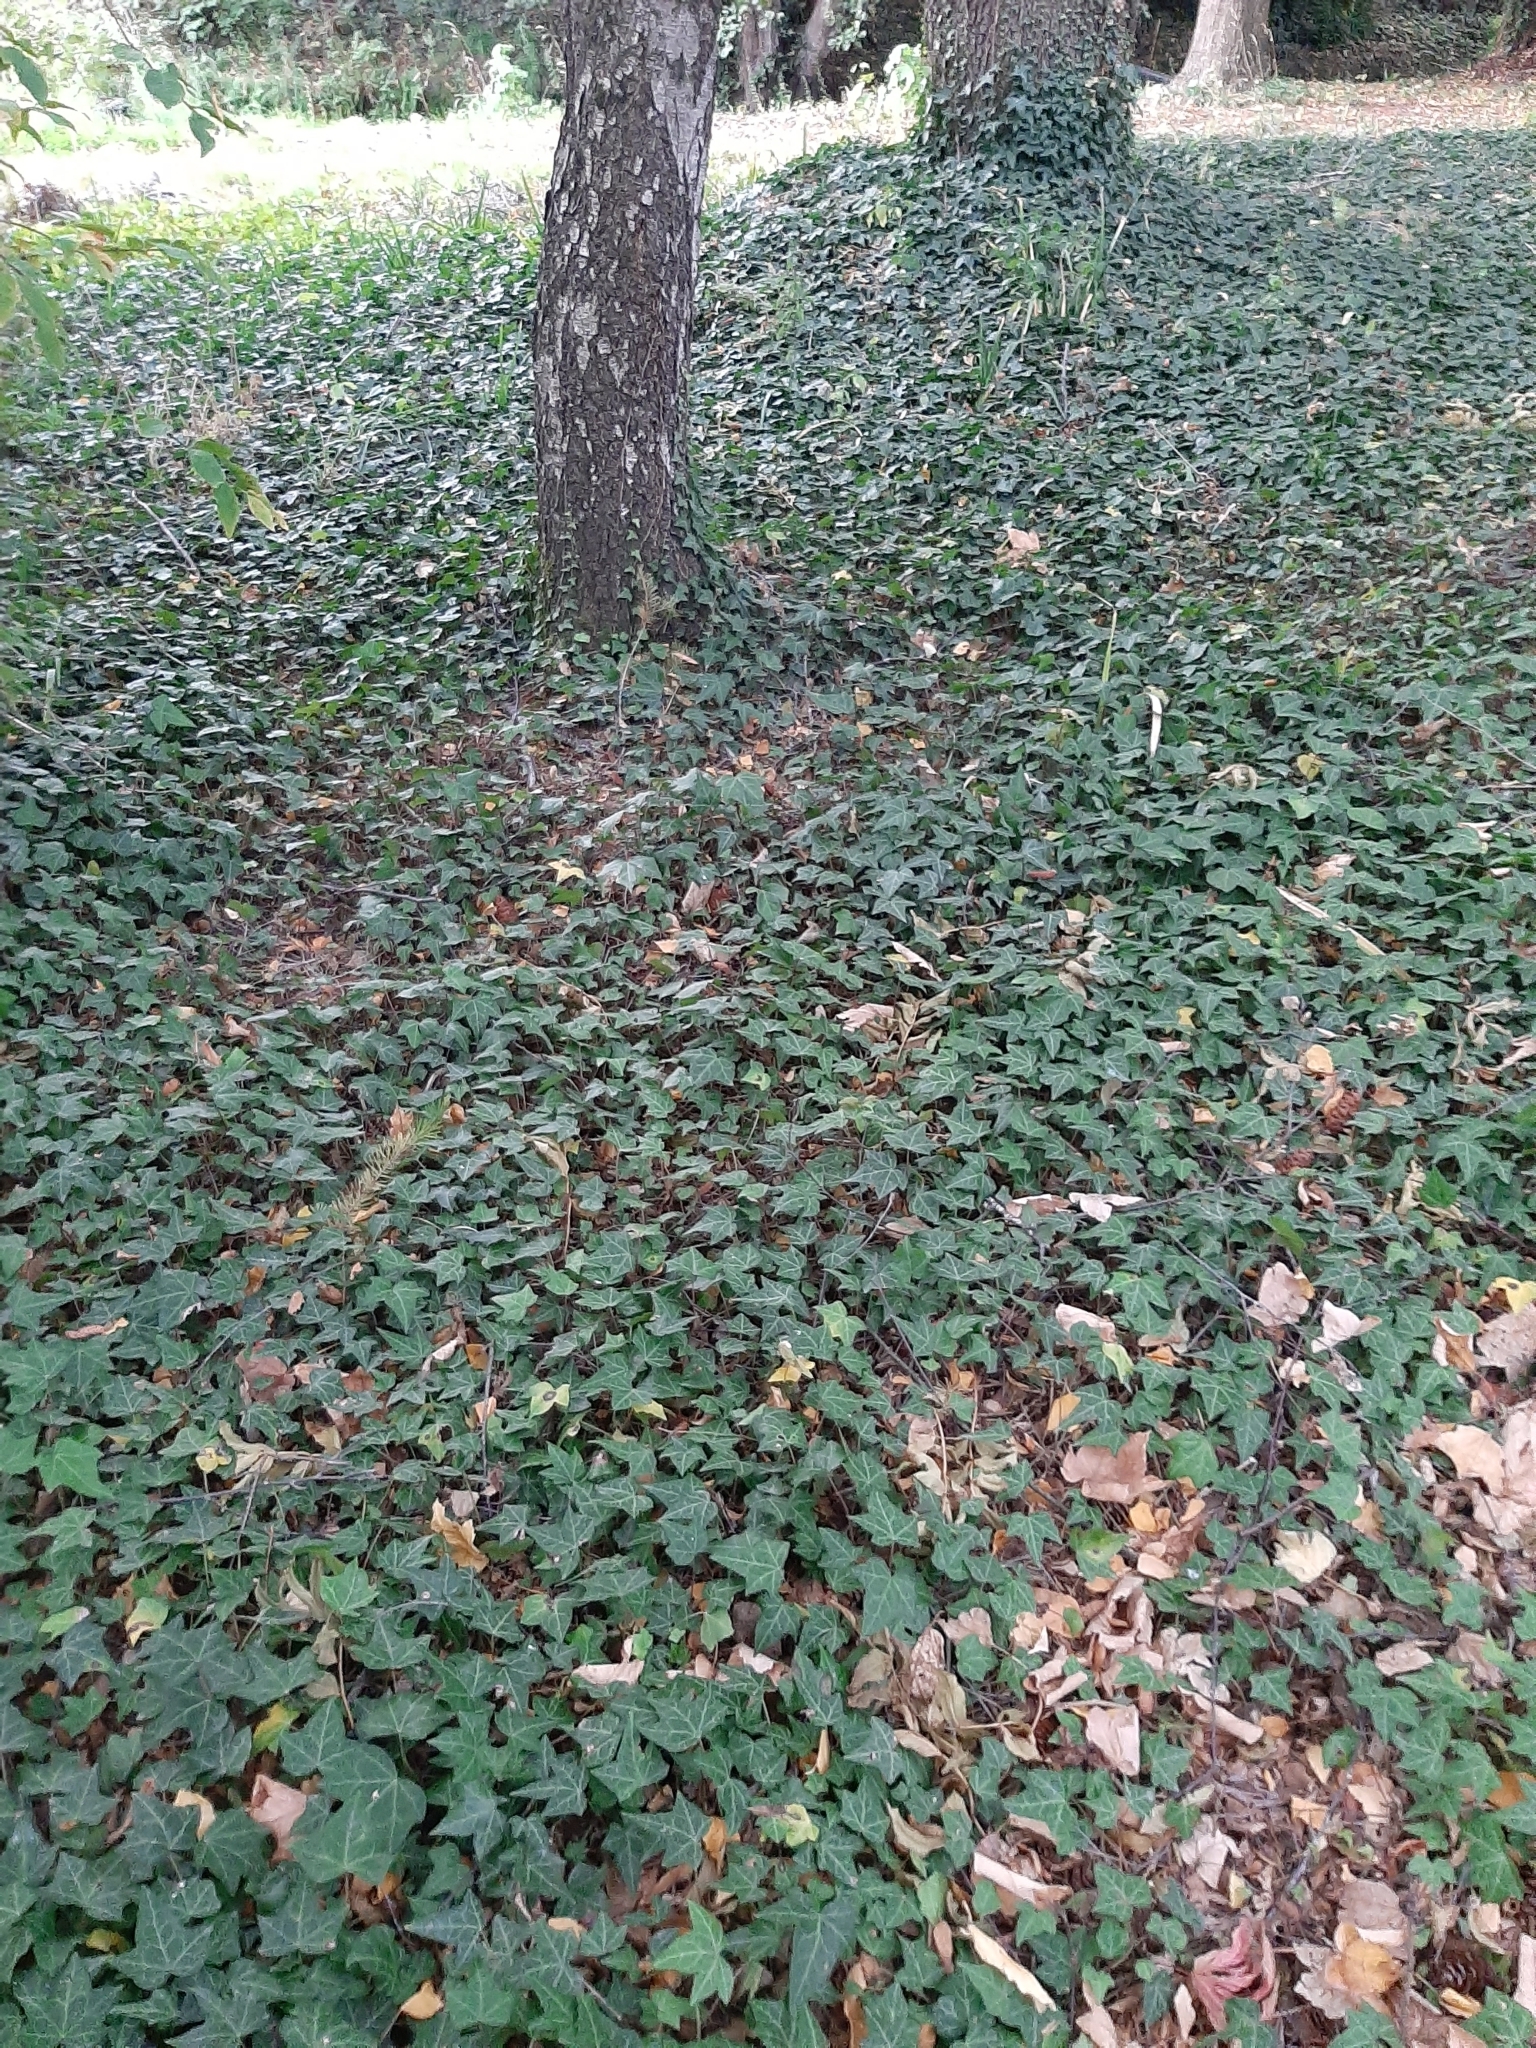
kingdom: Plantae
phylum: Tracheophyta
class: Magnoliopsida
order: Apiales
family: Araliaceae
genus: Hedera
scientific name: Hedera helix
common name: Ivy
